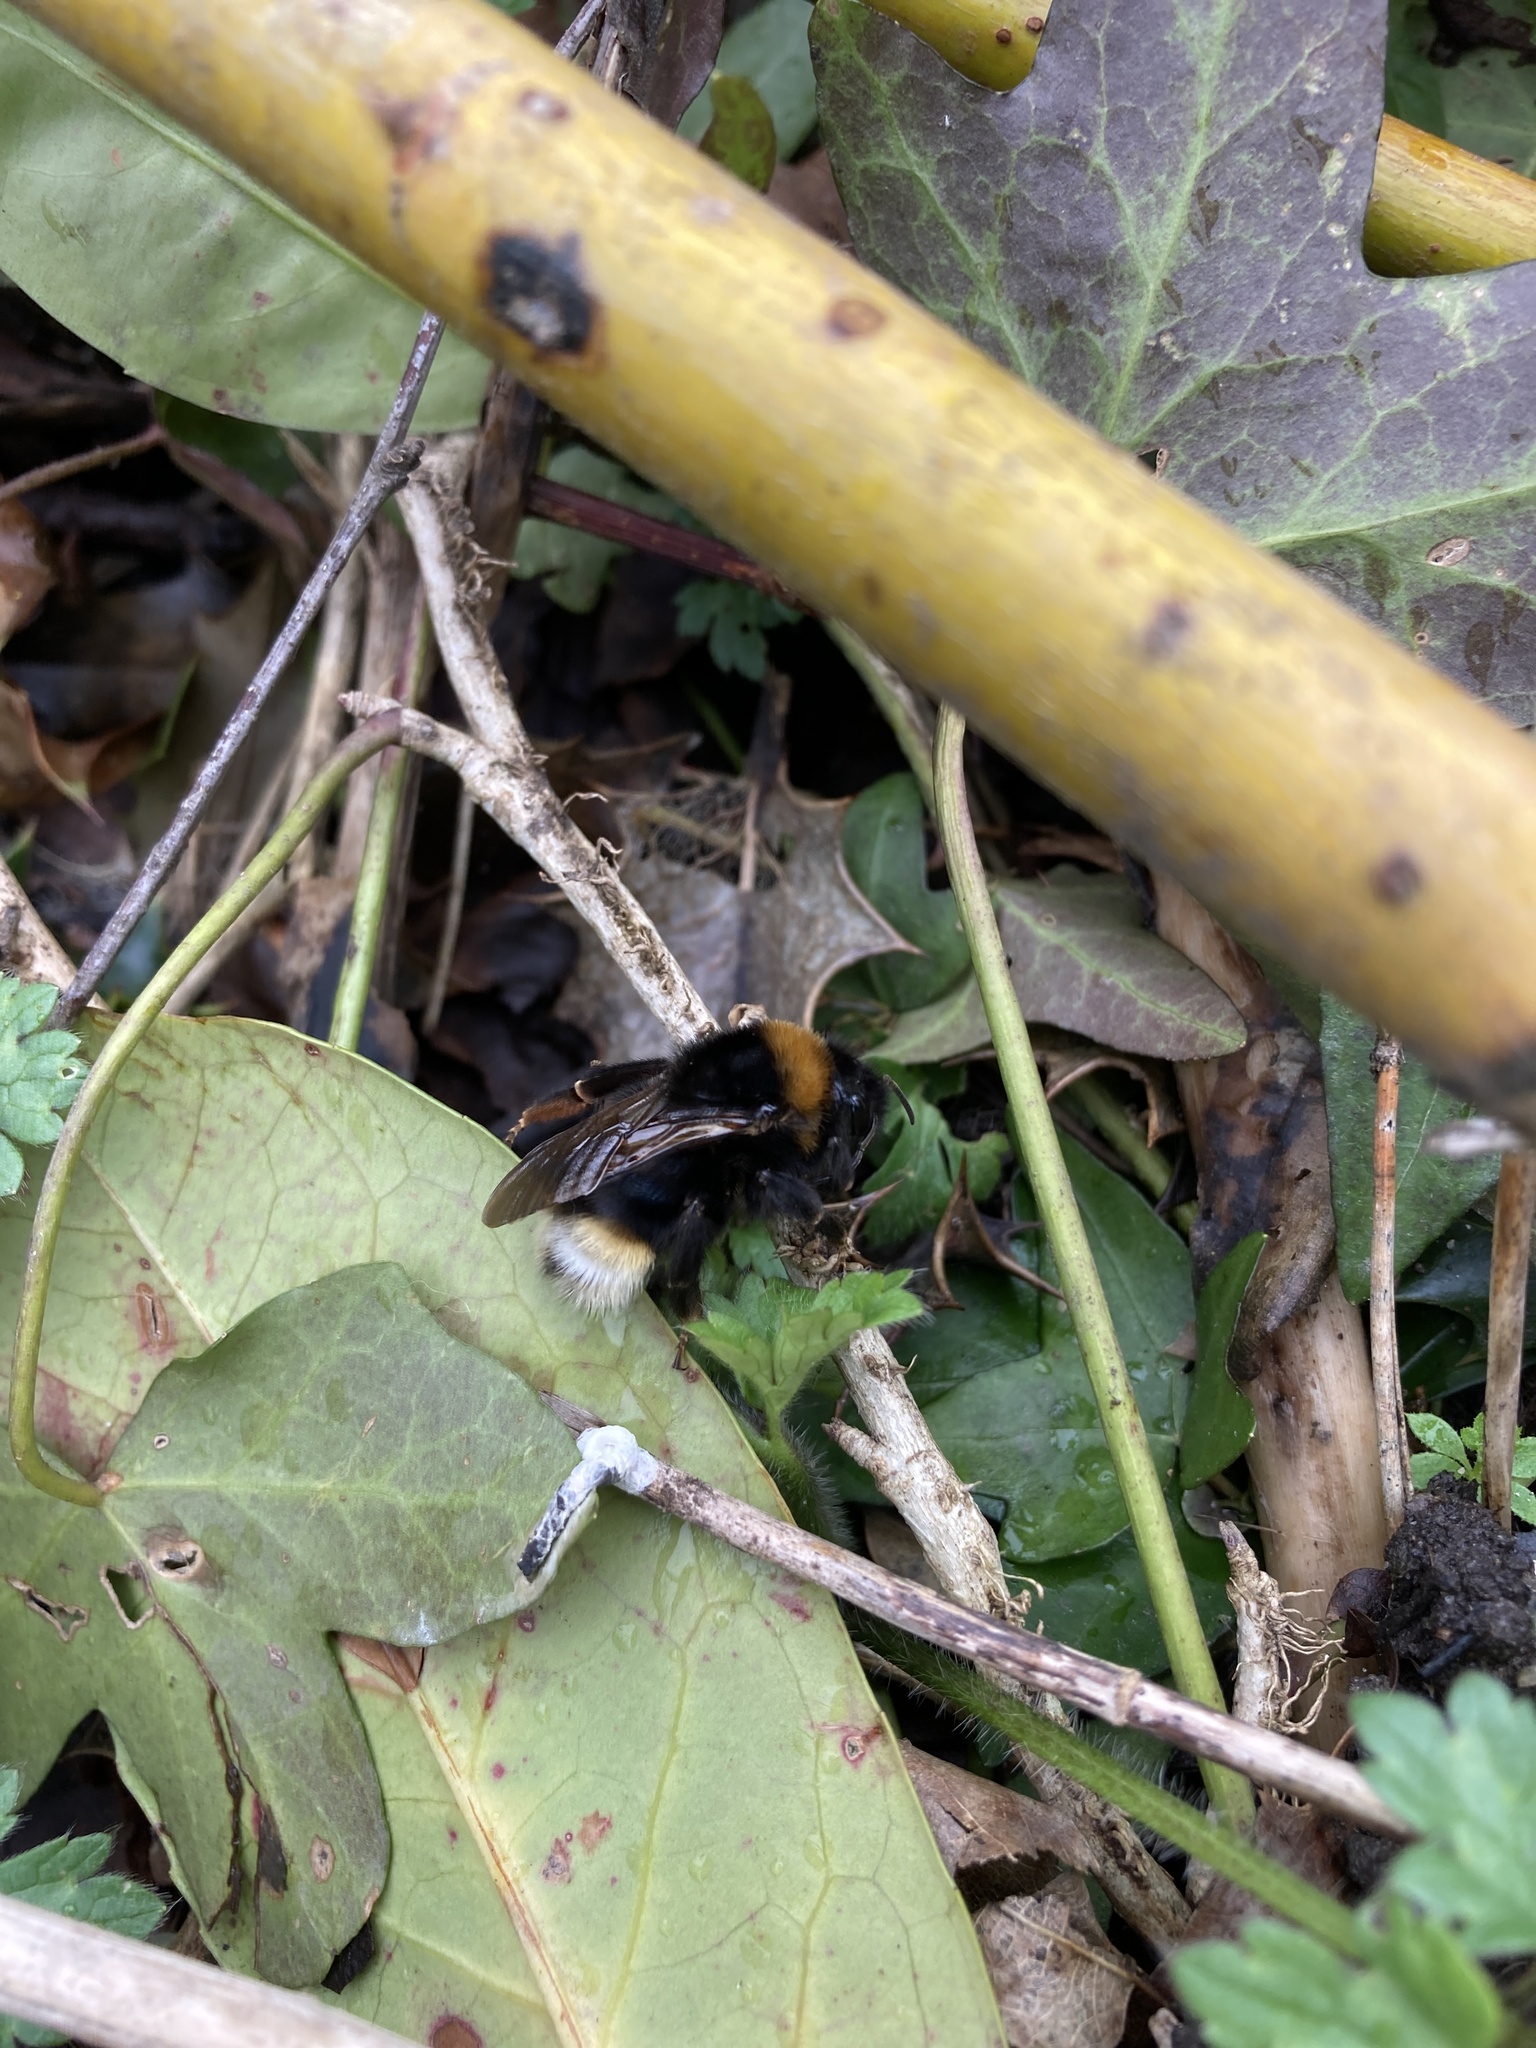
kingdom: Animalia
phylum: Arthropoda
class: Insecta
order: Hymenoptera
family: Apidae
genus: Bombus
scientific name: Bombus vestalis
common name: Vestal cuckoo bee
